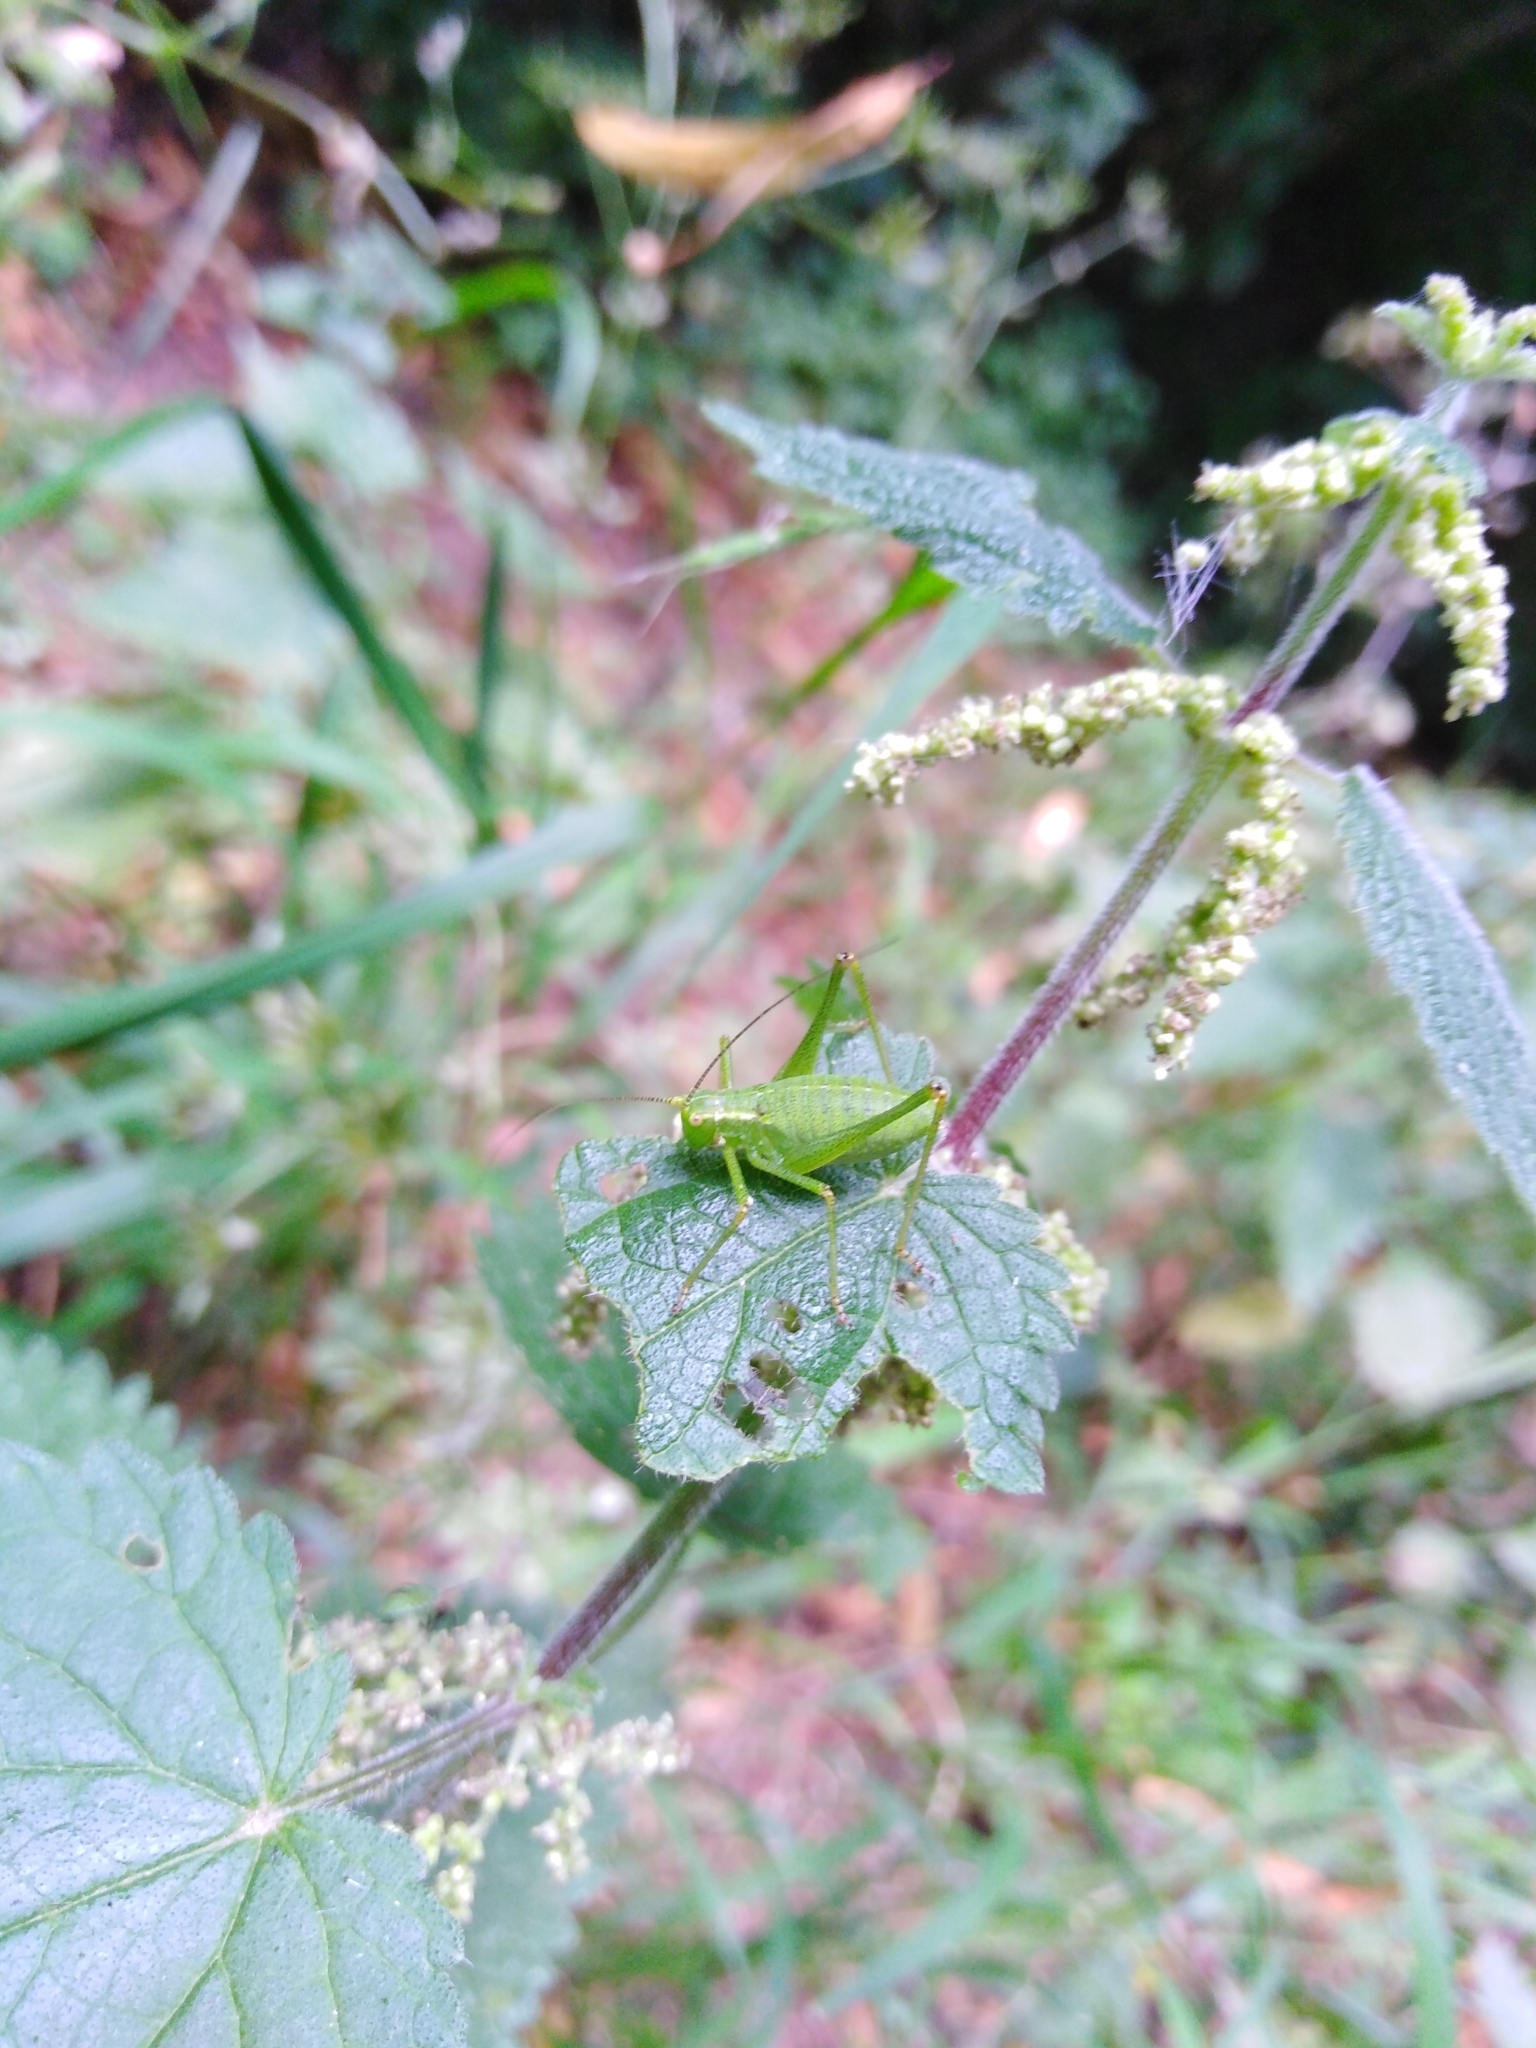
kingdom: Animalia
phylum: Arthropoda
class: Insecta
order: Orthoptera
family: Tettigoniidae
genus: Leptophyes
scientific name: Leptophyes punctatissima
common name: Speckled bush-cricket
